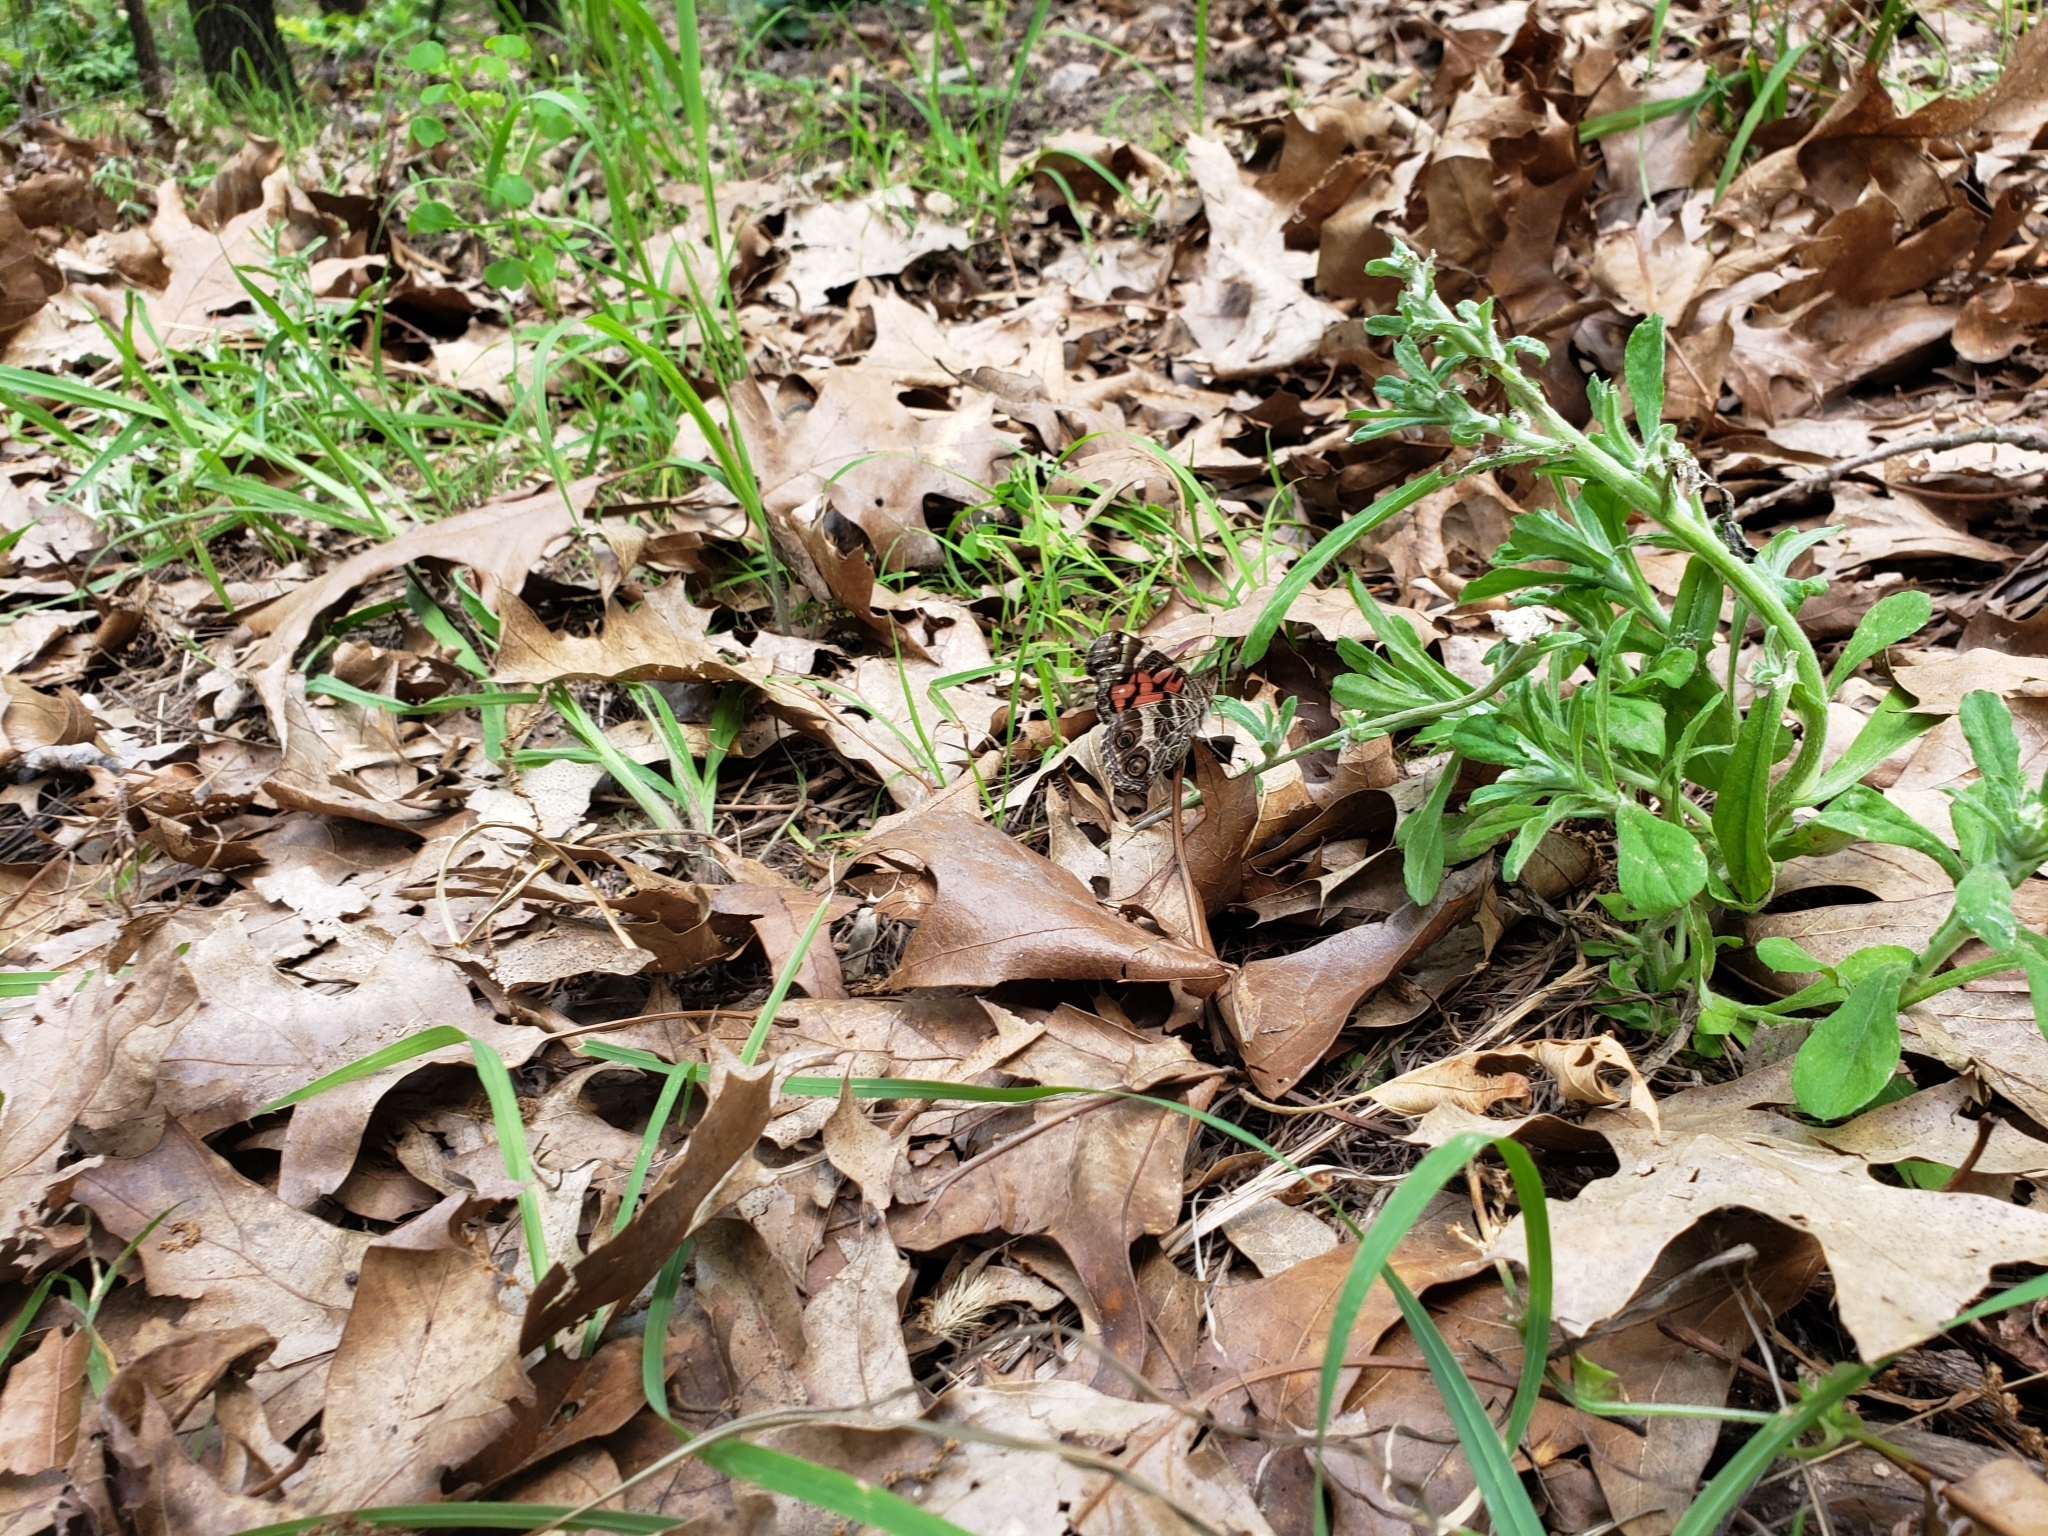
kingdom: Animalia
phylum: Arthropoda
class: Insecta
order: Lepidoptera
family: Nymphalidae
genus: Vanessa
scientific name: Vanessa virginiensis
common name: American lady
